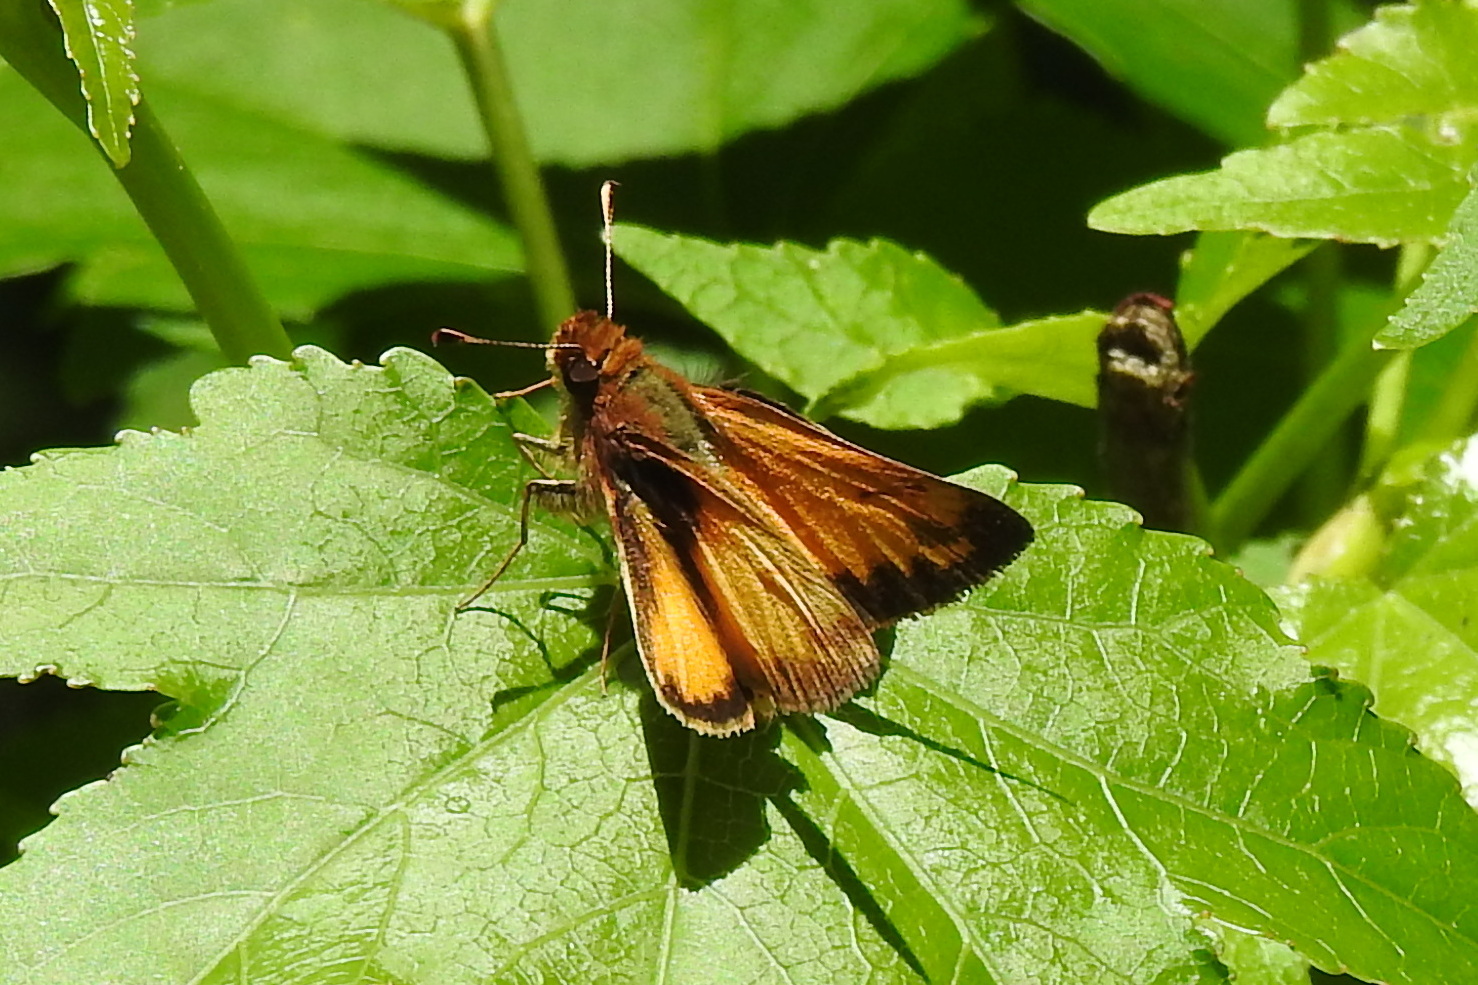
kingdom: Animalia
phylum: Arthropoda
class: Insecta
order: Lepidoptera
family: Hesperiidae
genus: Lon
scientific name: Lon zabulon
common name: Zabulon skipper
